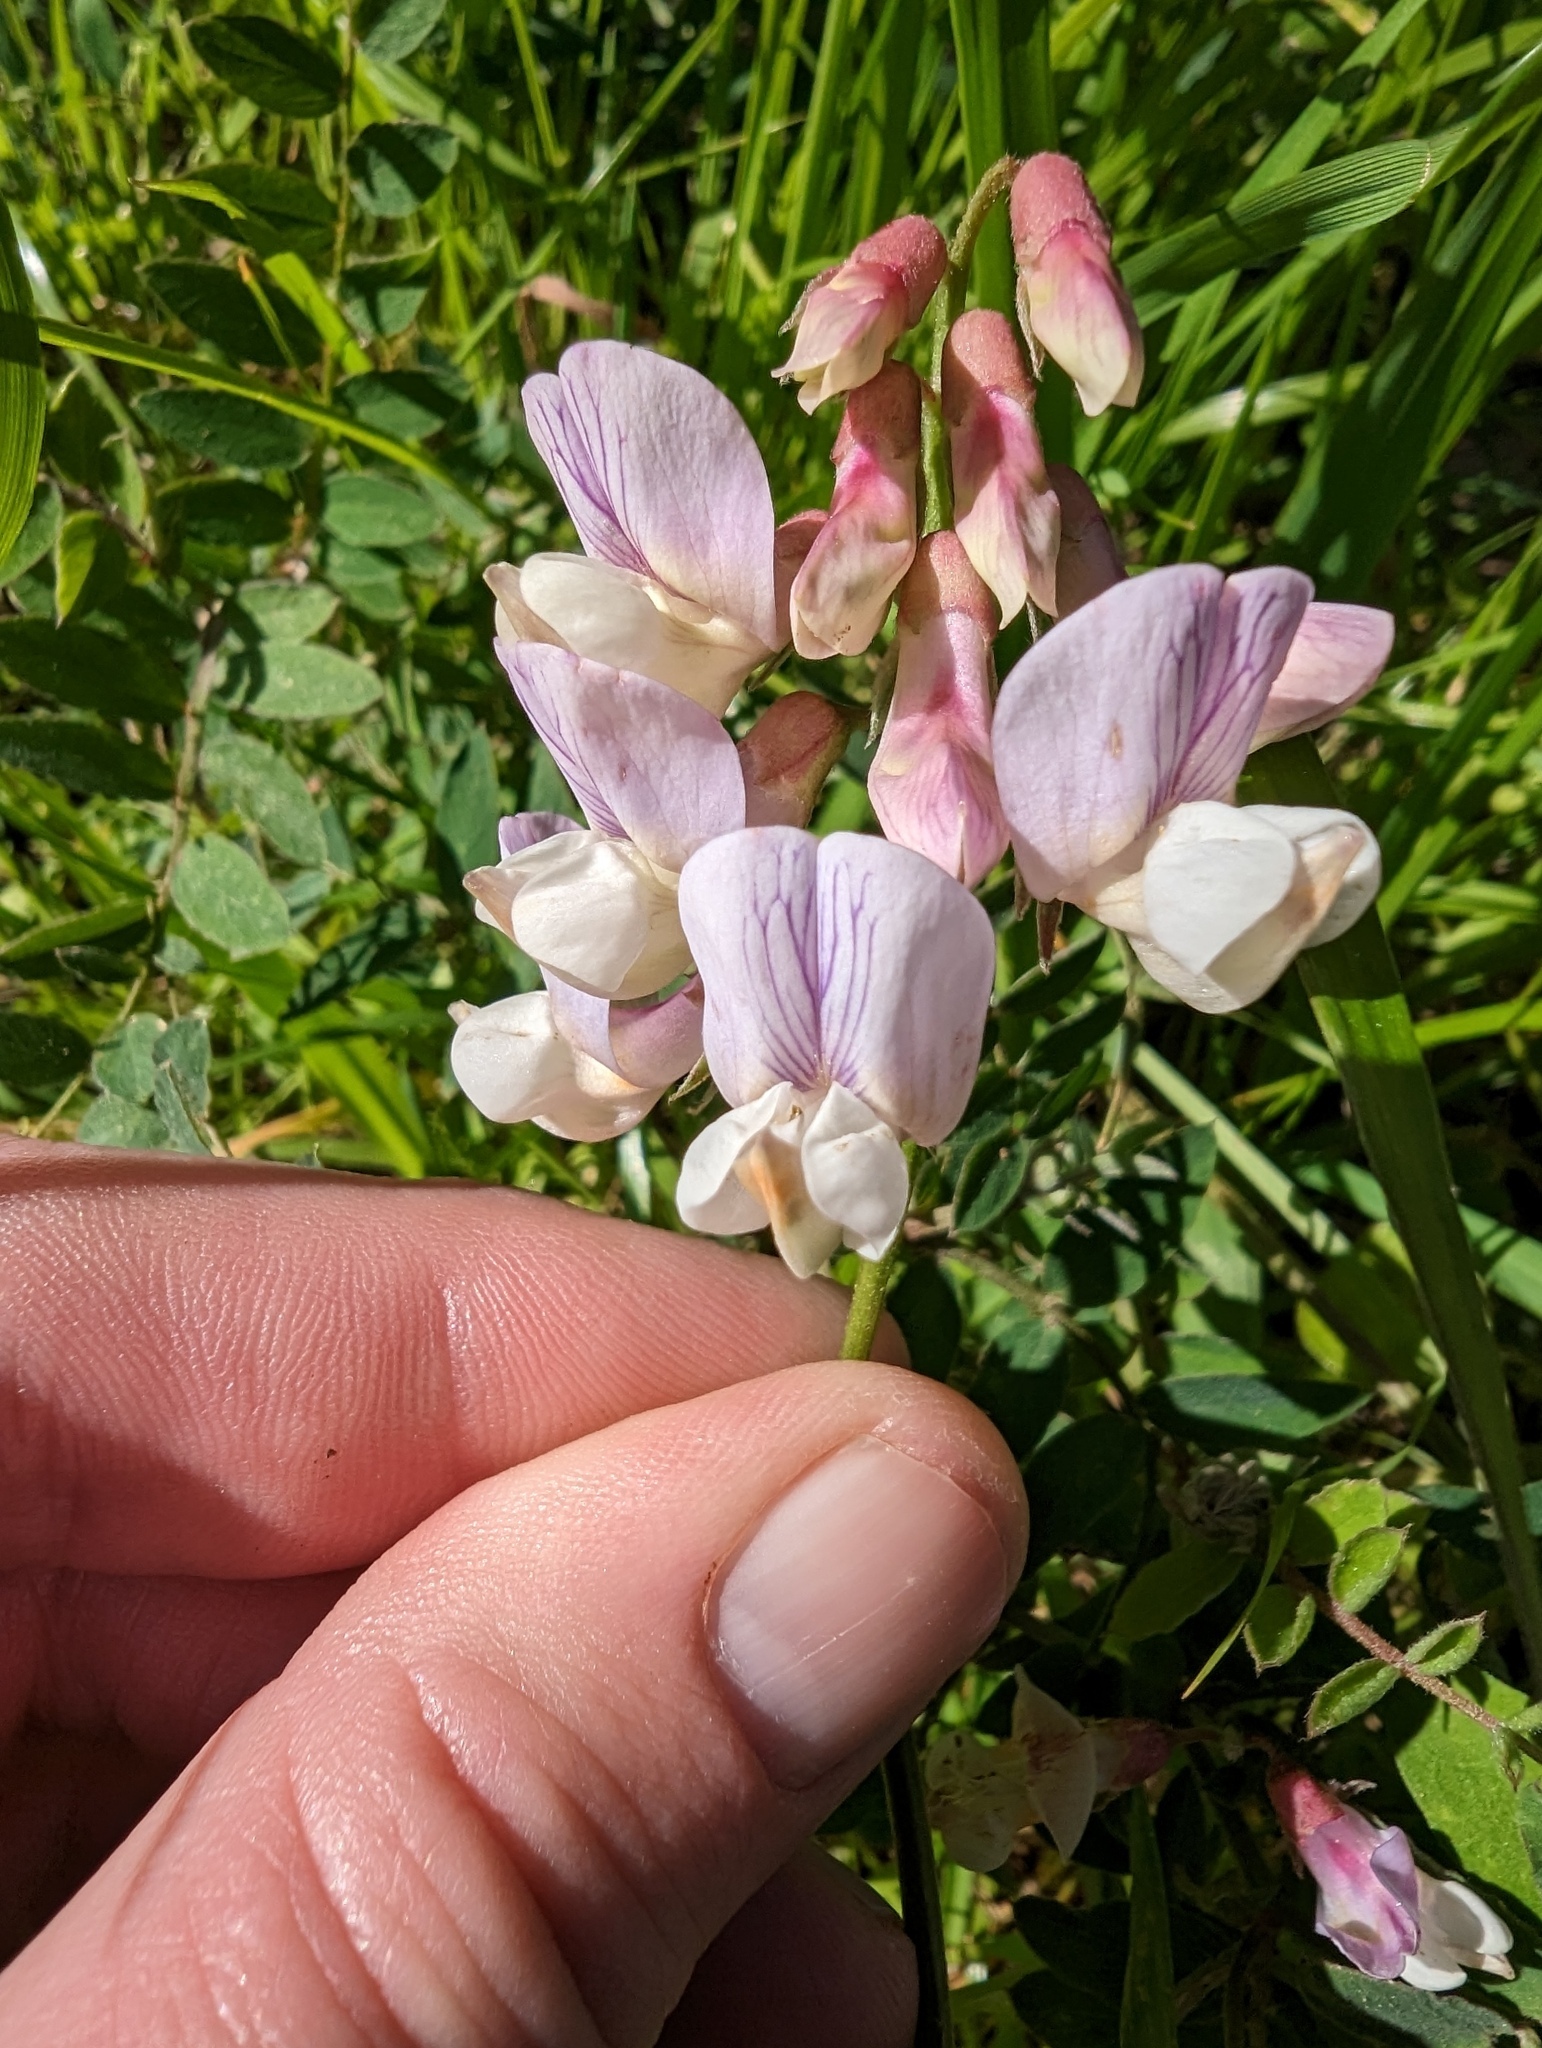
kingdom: Plantae
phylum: Tracheophyta
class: Magnoliopsida
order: Fabales
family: Fabaceae
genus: Lathyrus
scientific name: Lathyrus vestitus
